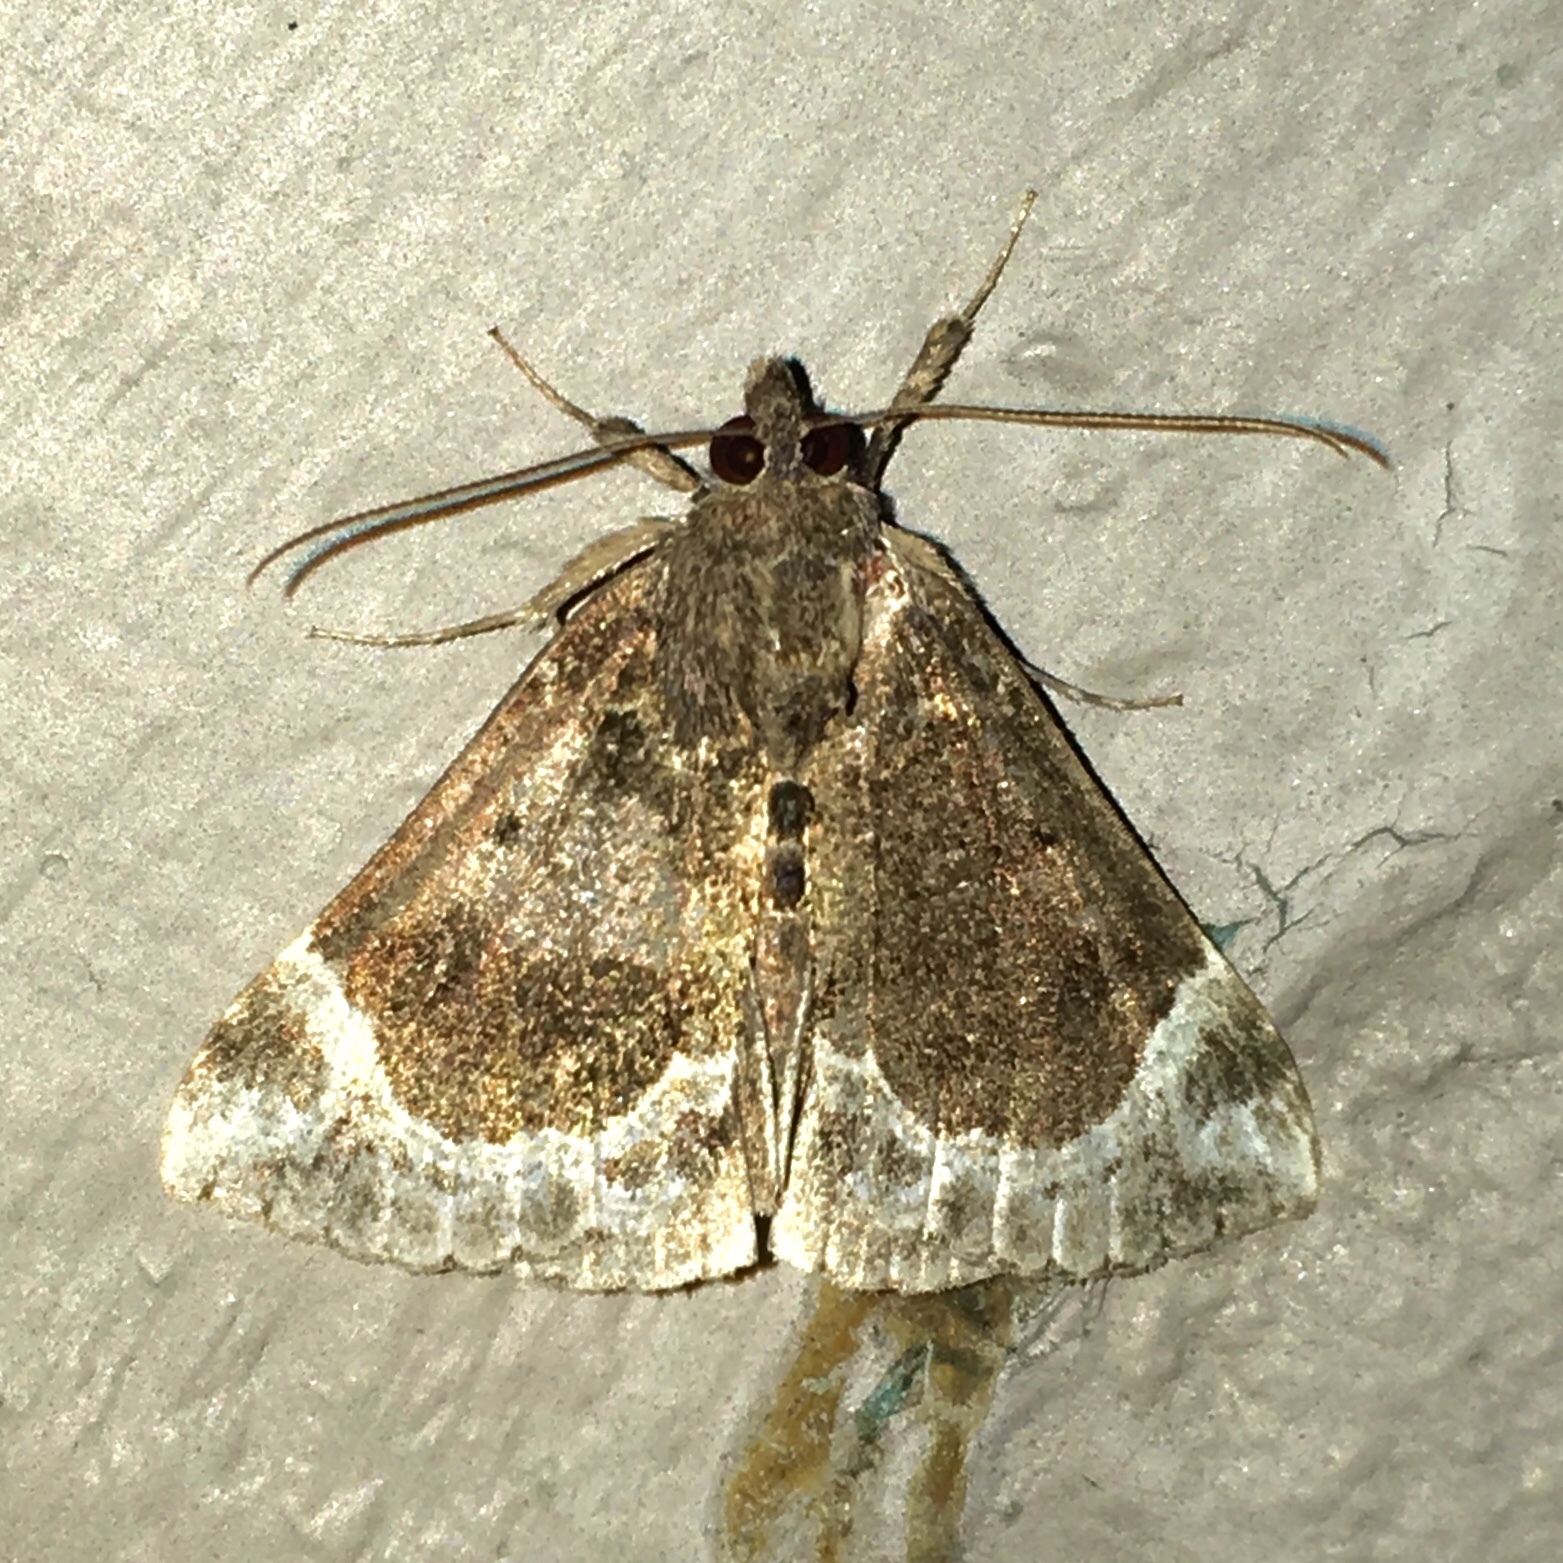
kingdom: Animalia
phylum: Arthropoda
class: Insecta
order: Lepidoptera
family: Erebidae
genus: Hypena
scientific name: Hypena abalienalis
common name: White-lined snout
